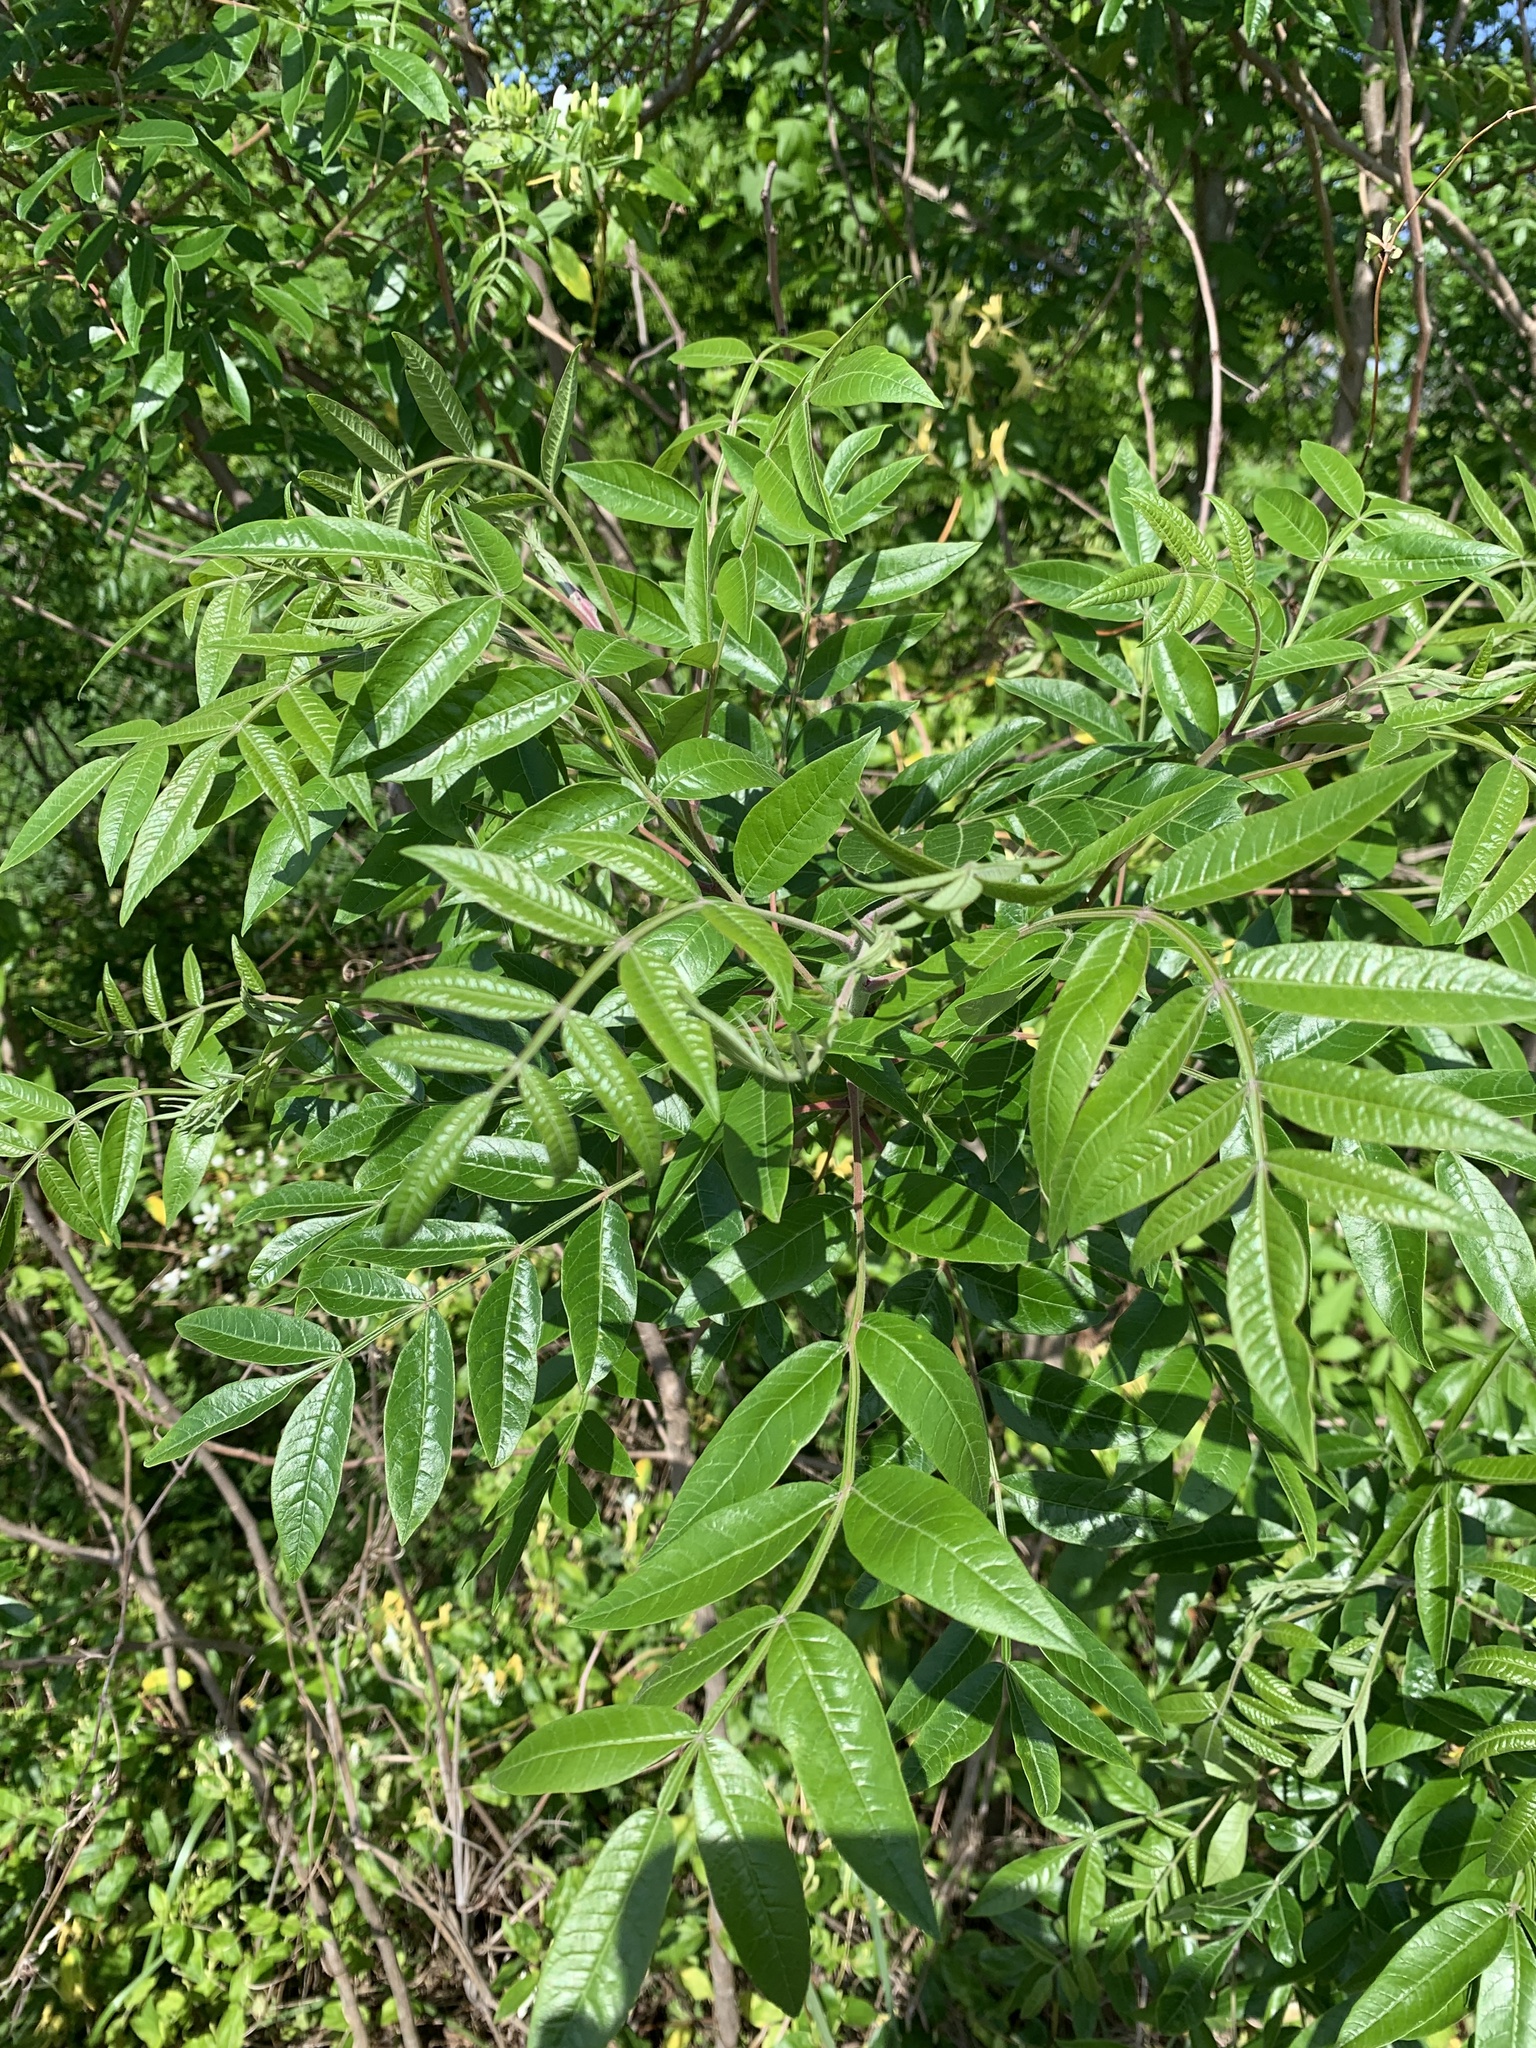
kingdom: Plantae
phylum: Tracheophyta
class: Magnoliopsida
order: Sapindales
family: Anacardiaceae
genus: Rhus
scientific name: Rhus copallina
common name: Shining sumac
